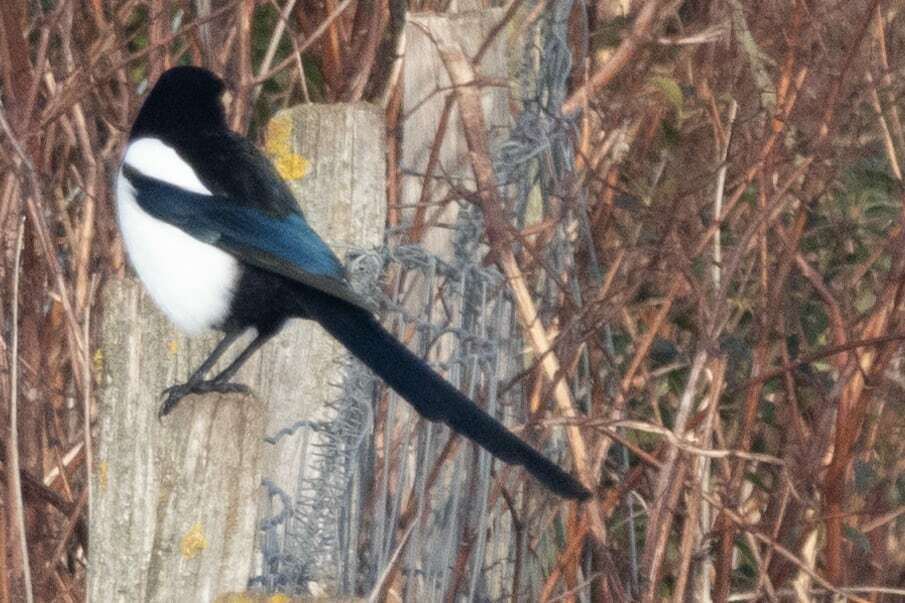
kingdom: Animalia
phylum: Chordata
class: Aves
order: Passeriformes
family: Corvidae
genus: Pica
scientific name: Pica pica
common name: Eurasian magpie
